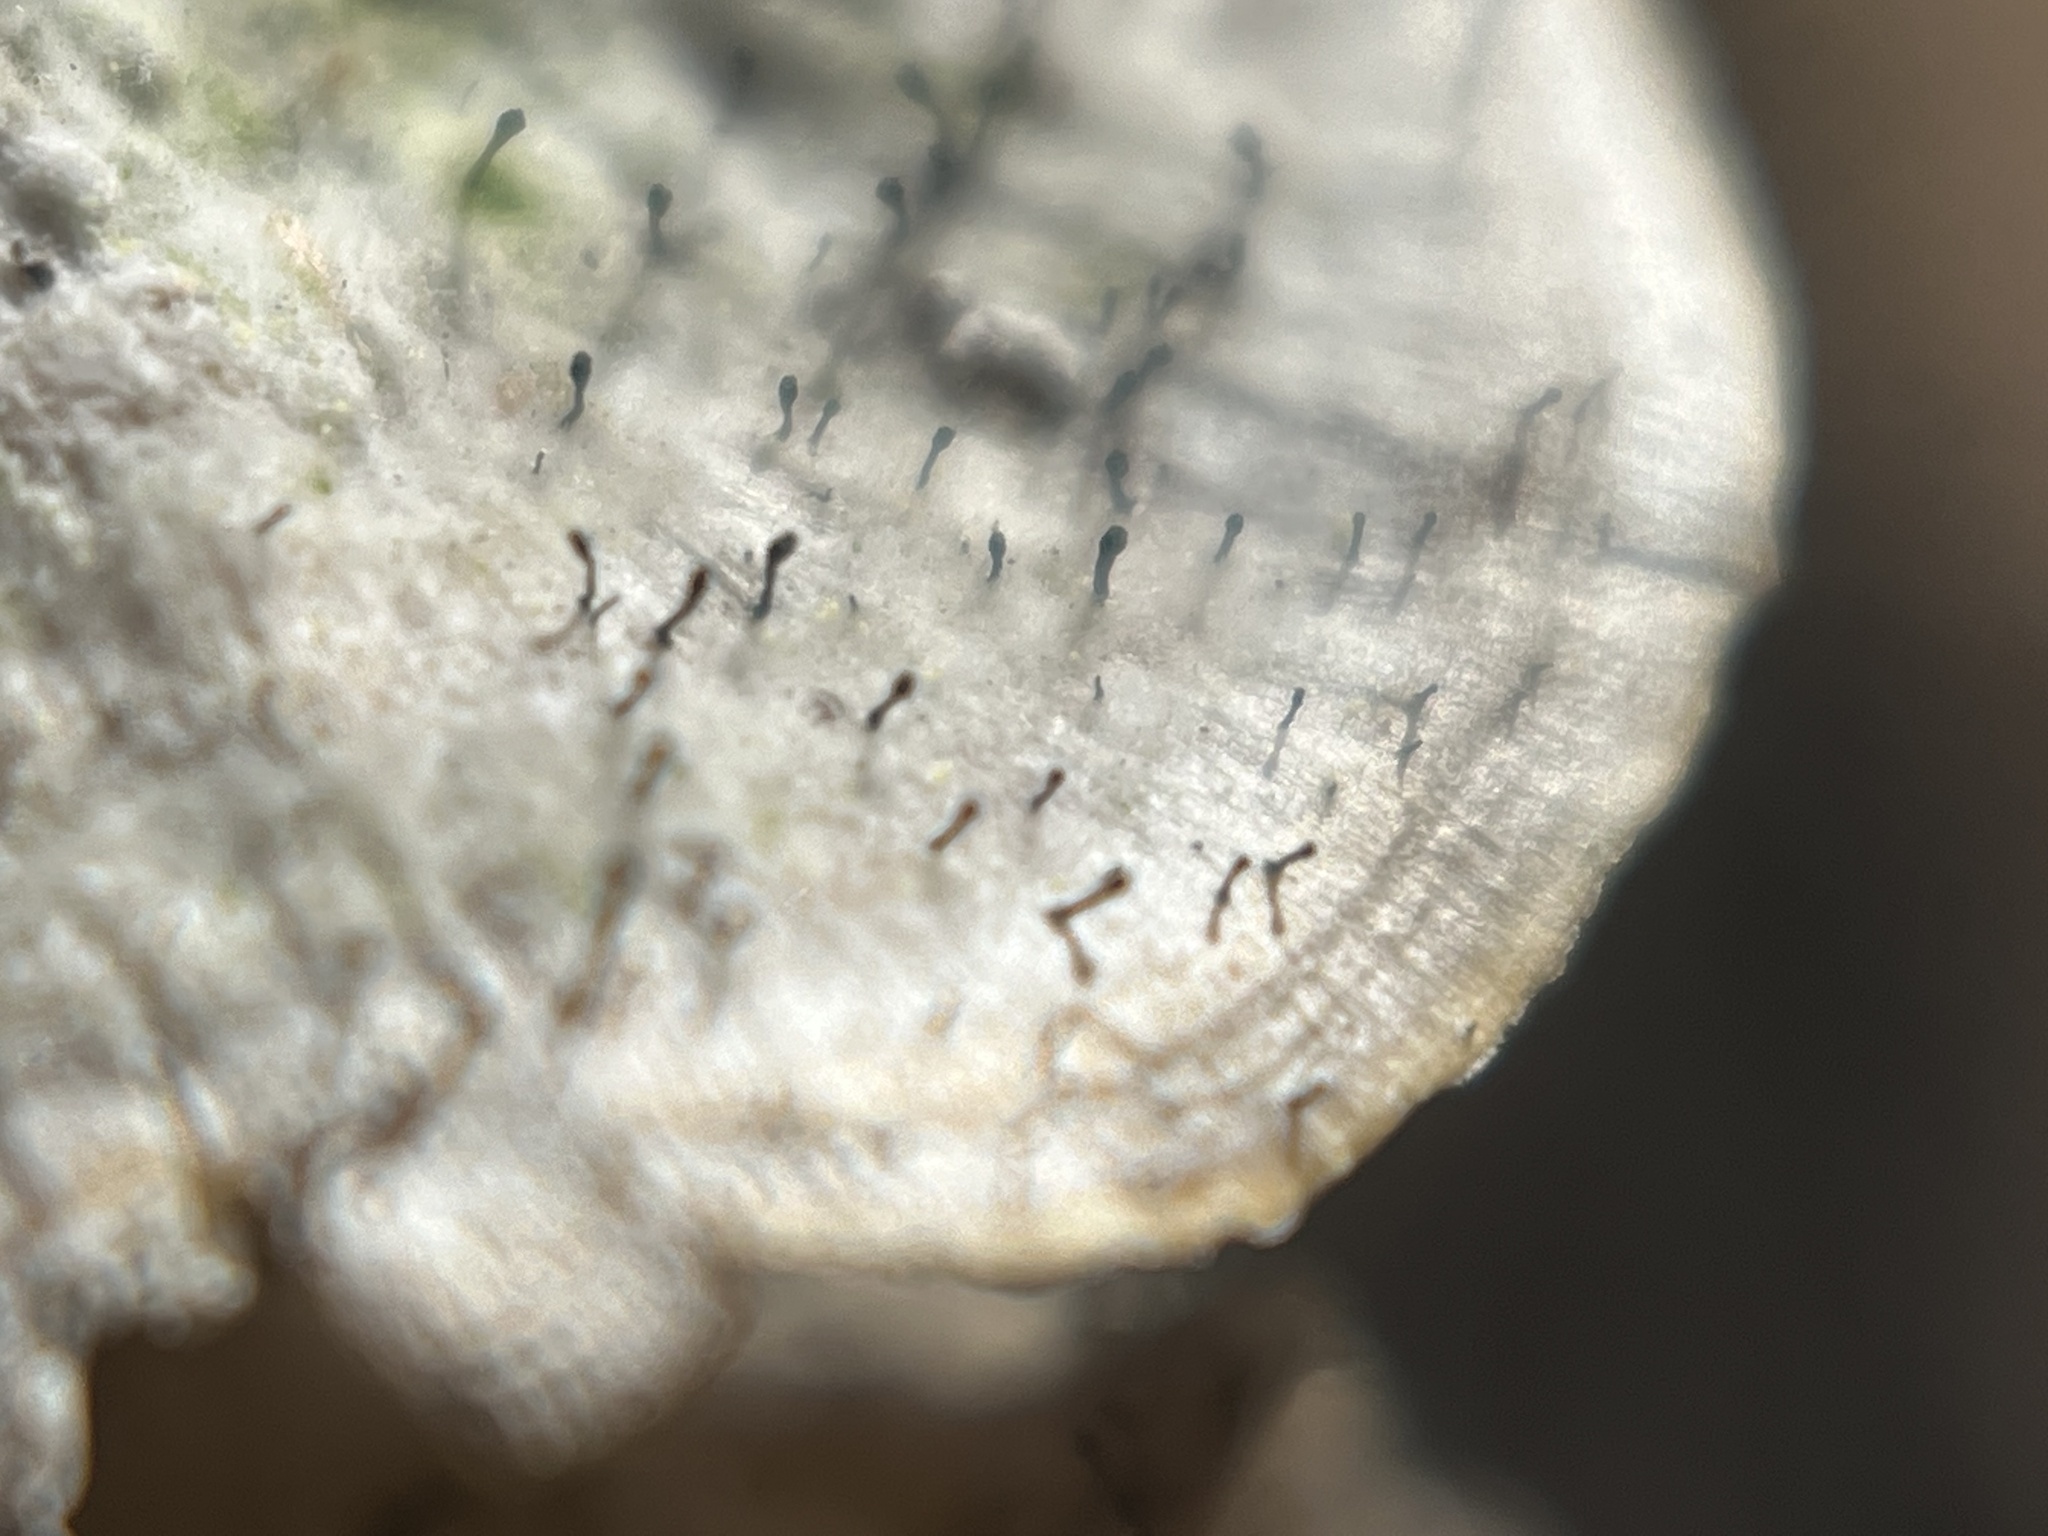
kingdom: Fungi
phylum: Ascomycota
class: Eurotiomycetes
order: Mycocaliciales
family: Mycocaliciaceae
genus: Phaeocalicium
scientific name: Phaeocalicium polyporaeum
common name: Fairy pins
